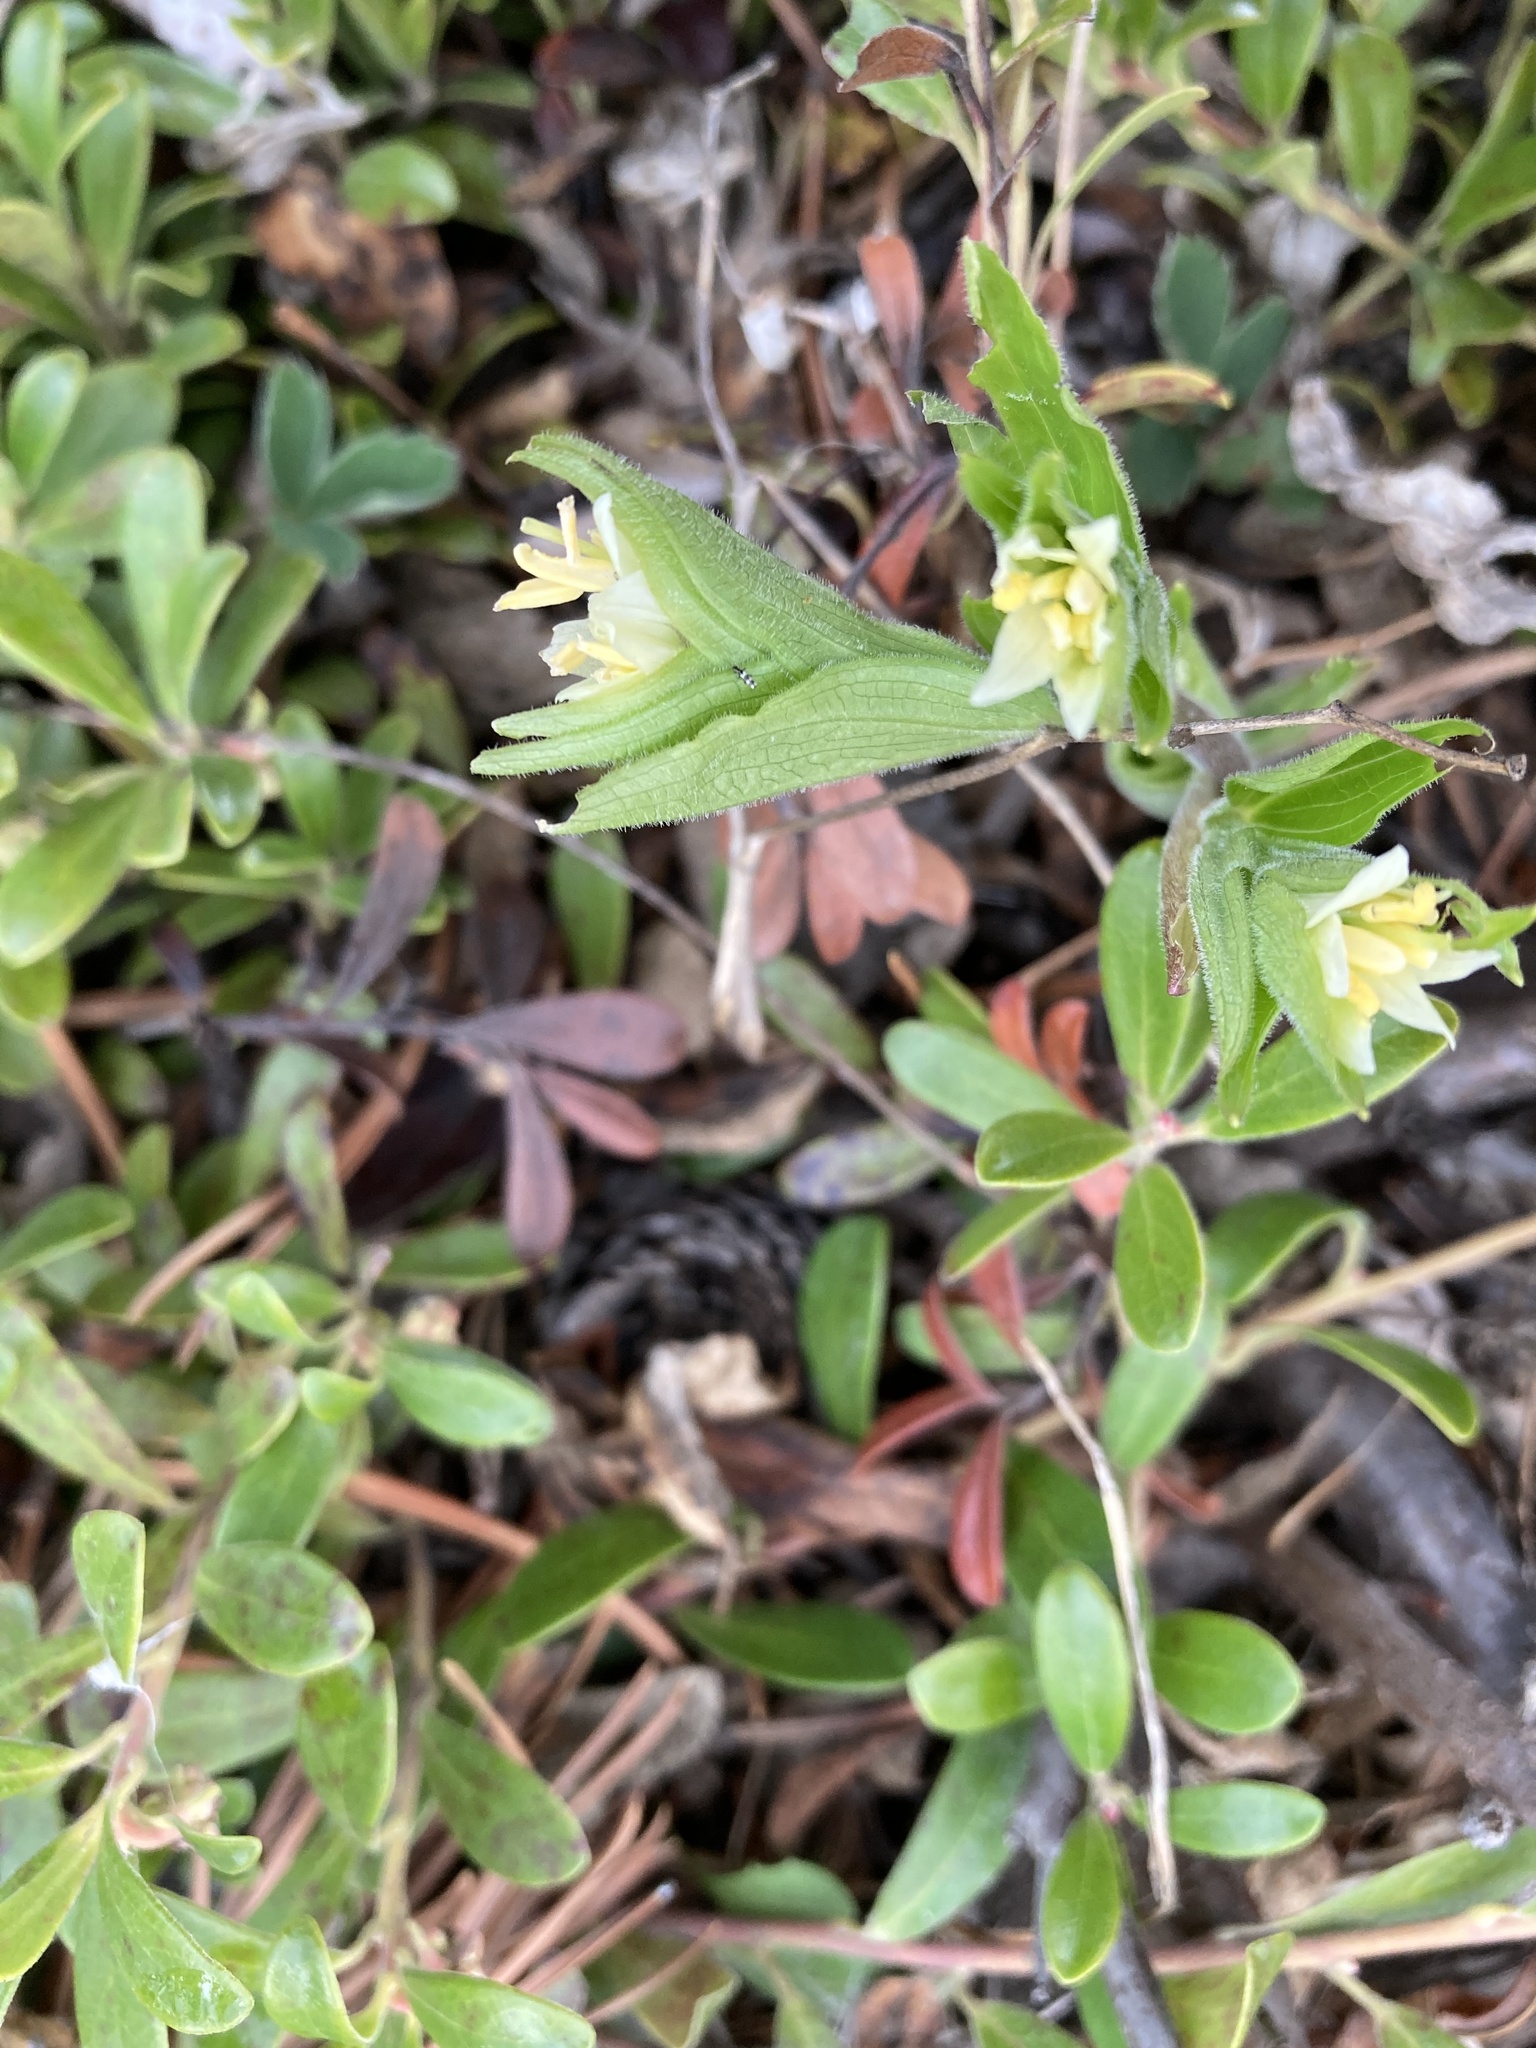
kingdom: Plantae
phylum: Tracheophyta
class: Liliopsida
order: Liliales
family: Liliaceae
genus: Prosartes
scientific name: Prosartes trachycarpa
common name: Rough-fruit fairy-bells
